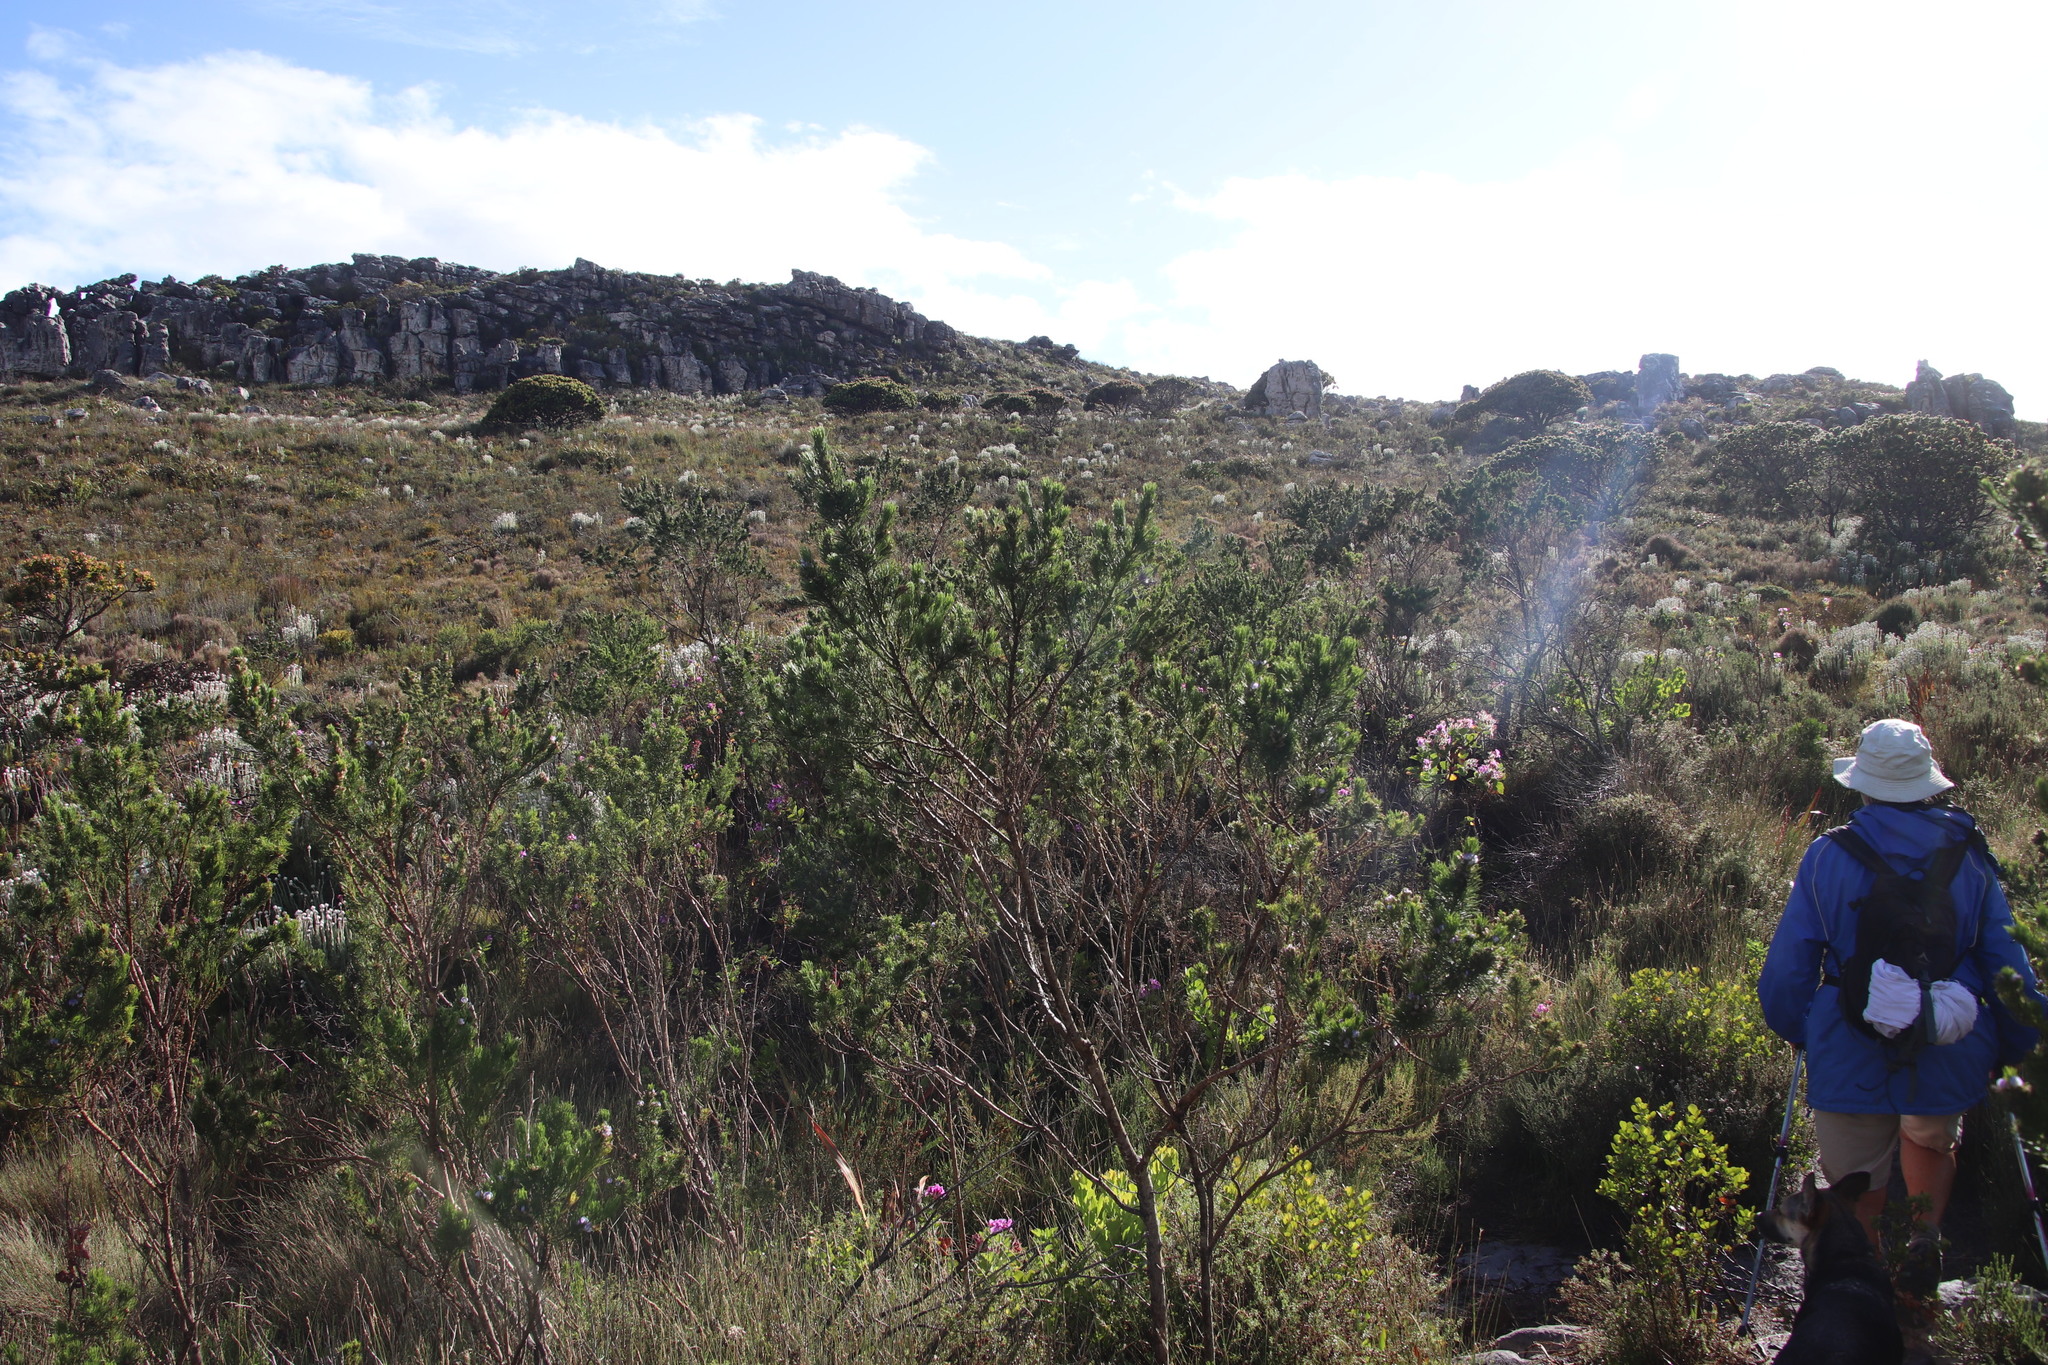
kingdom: Plantae
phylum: Tracheophyta
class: Magnoliopsida
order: Fabales
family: Fabaceae
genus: Psoralea
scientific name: Psoralea pinnata
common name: African scurfpea
